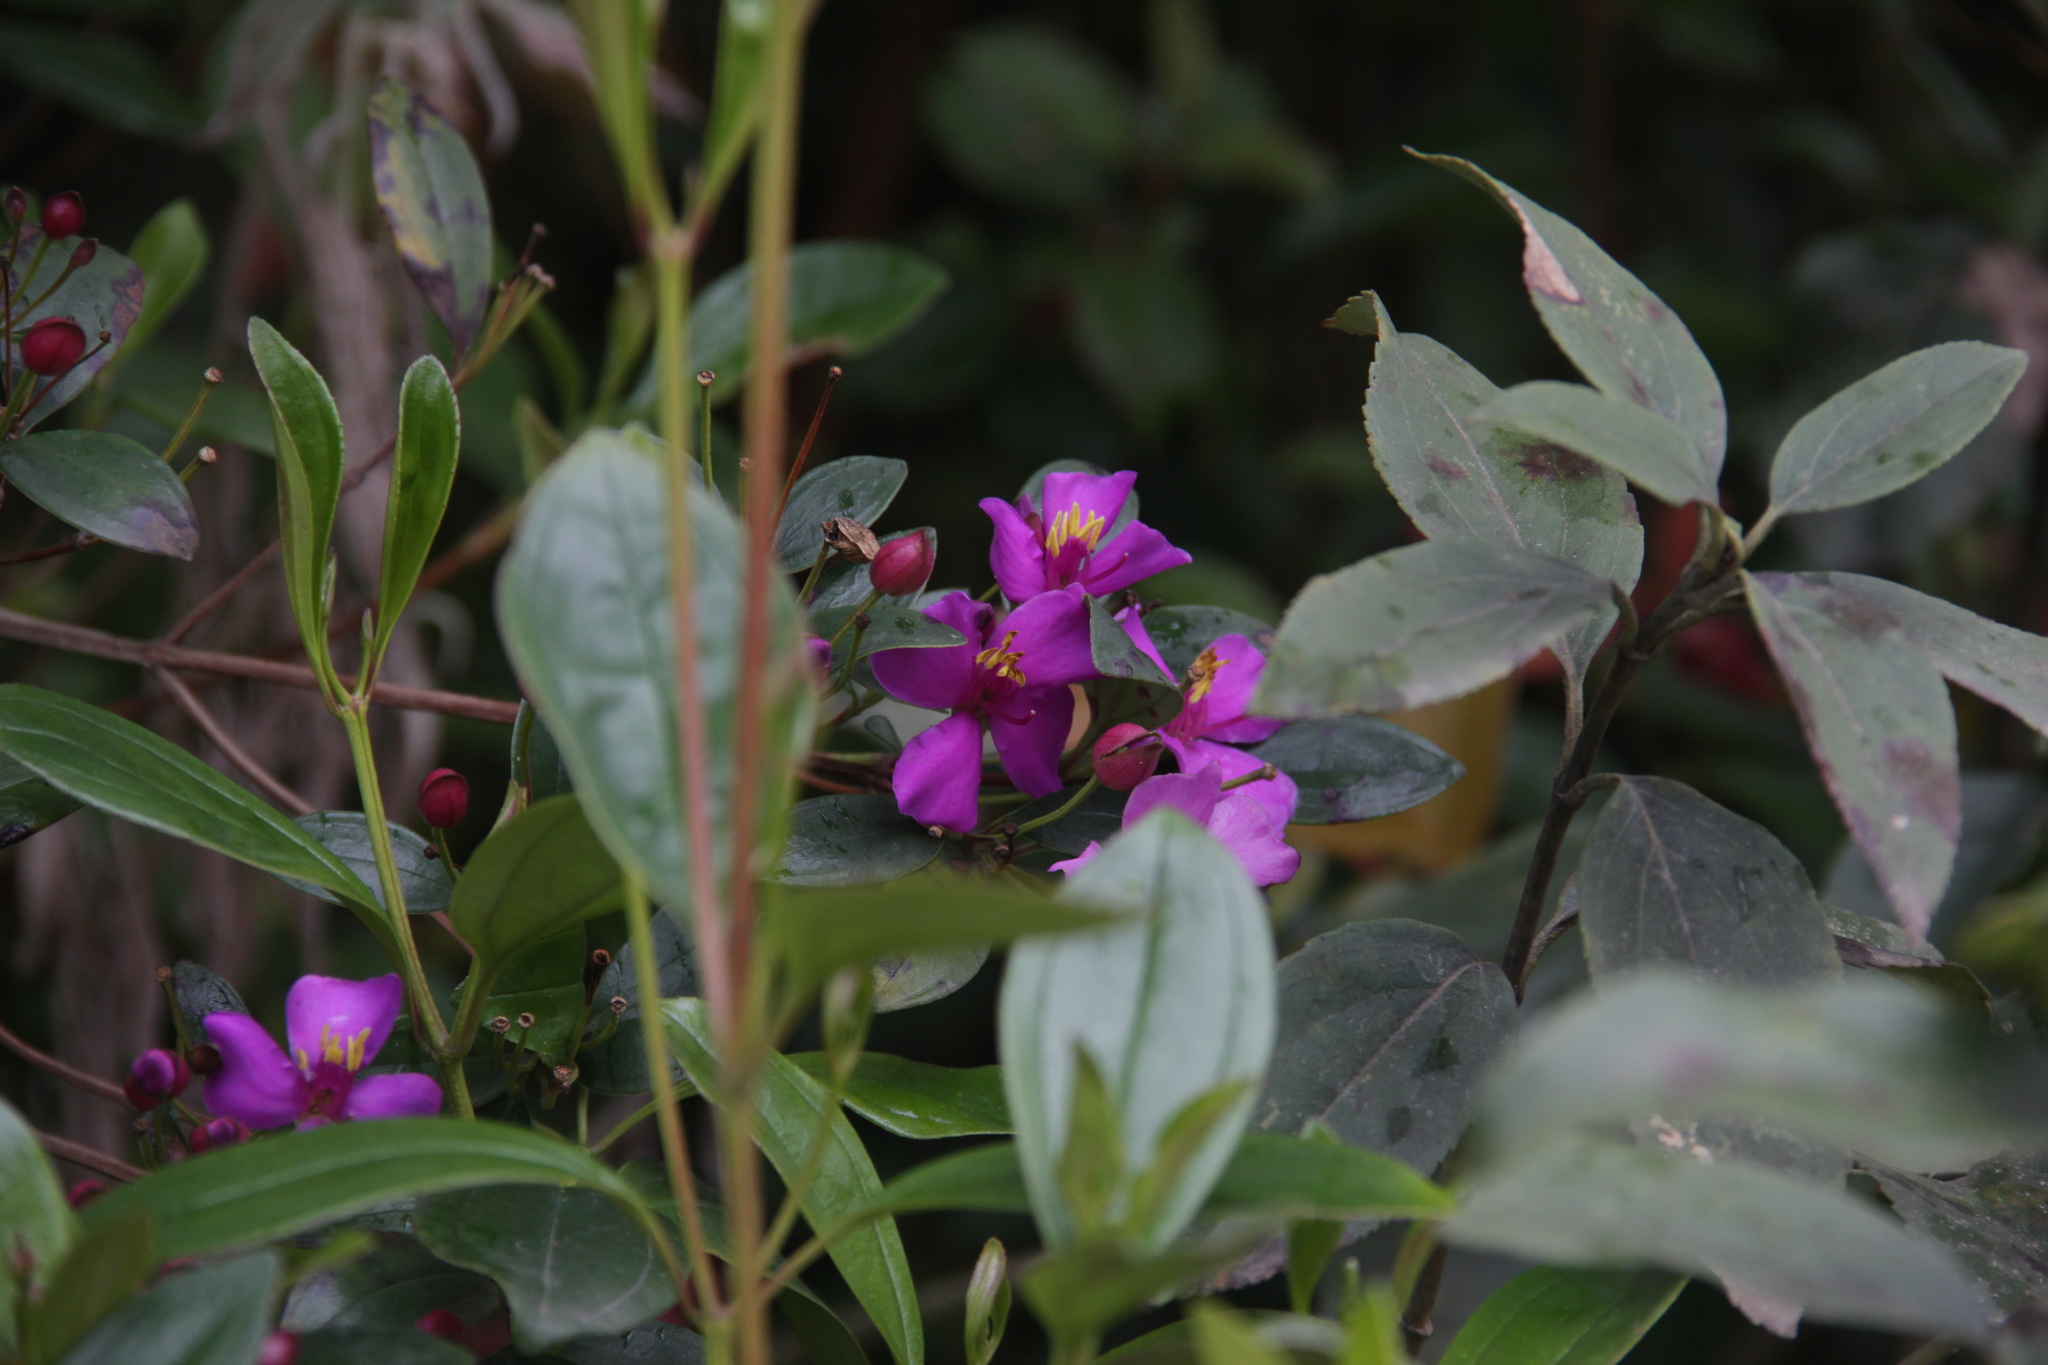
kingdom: Plantae
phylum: Tracheophyta
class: Magnoliopsida
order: Myrtales
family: Melastomataceae
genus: Bucquetia
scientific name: Bucquetia glutinosa
